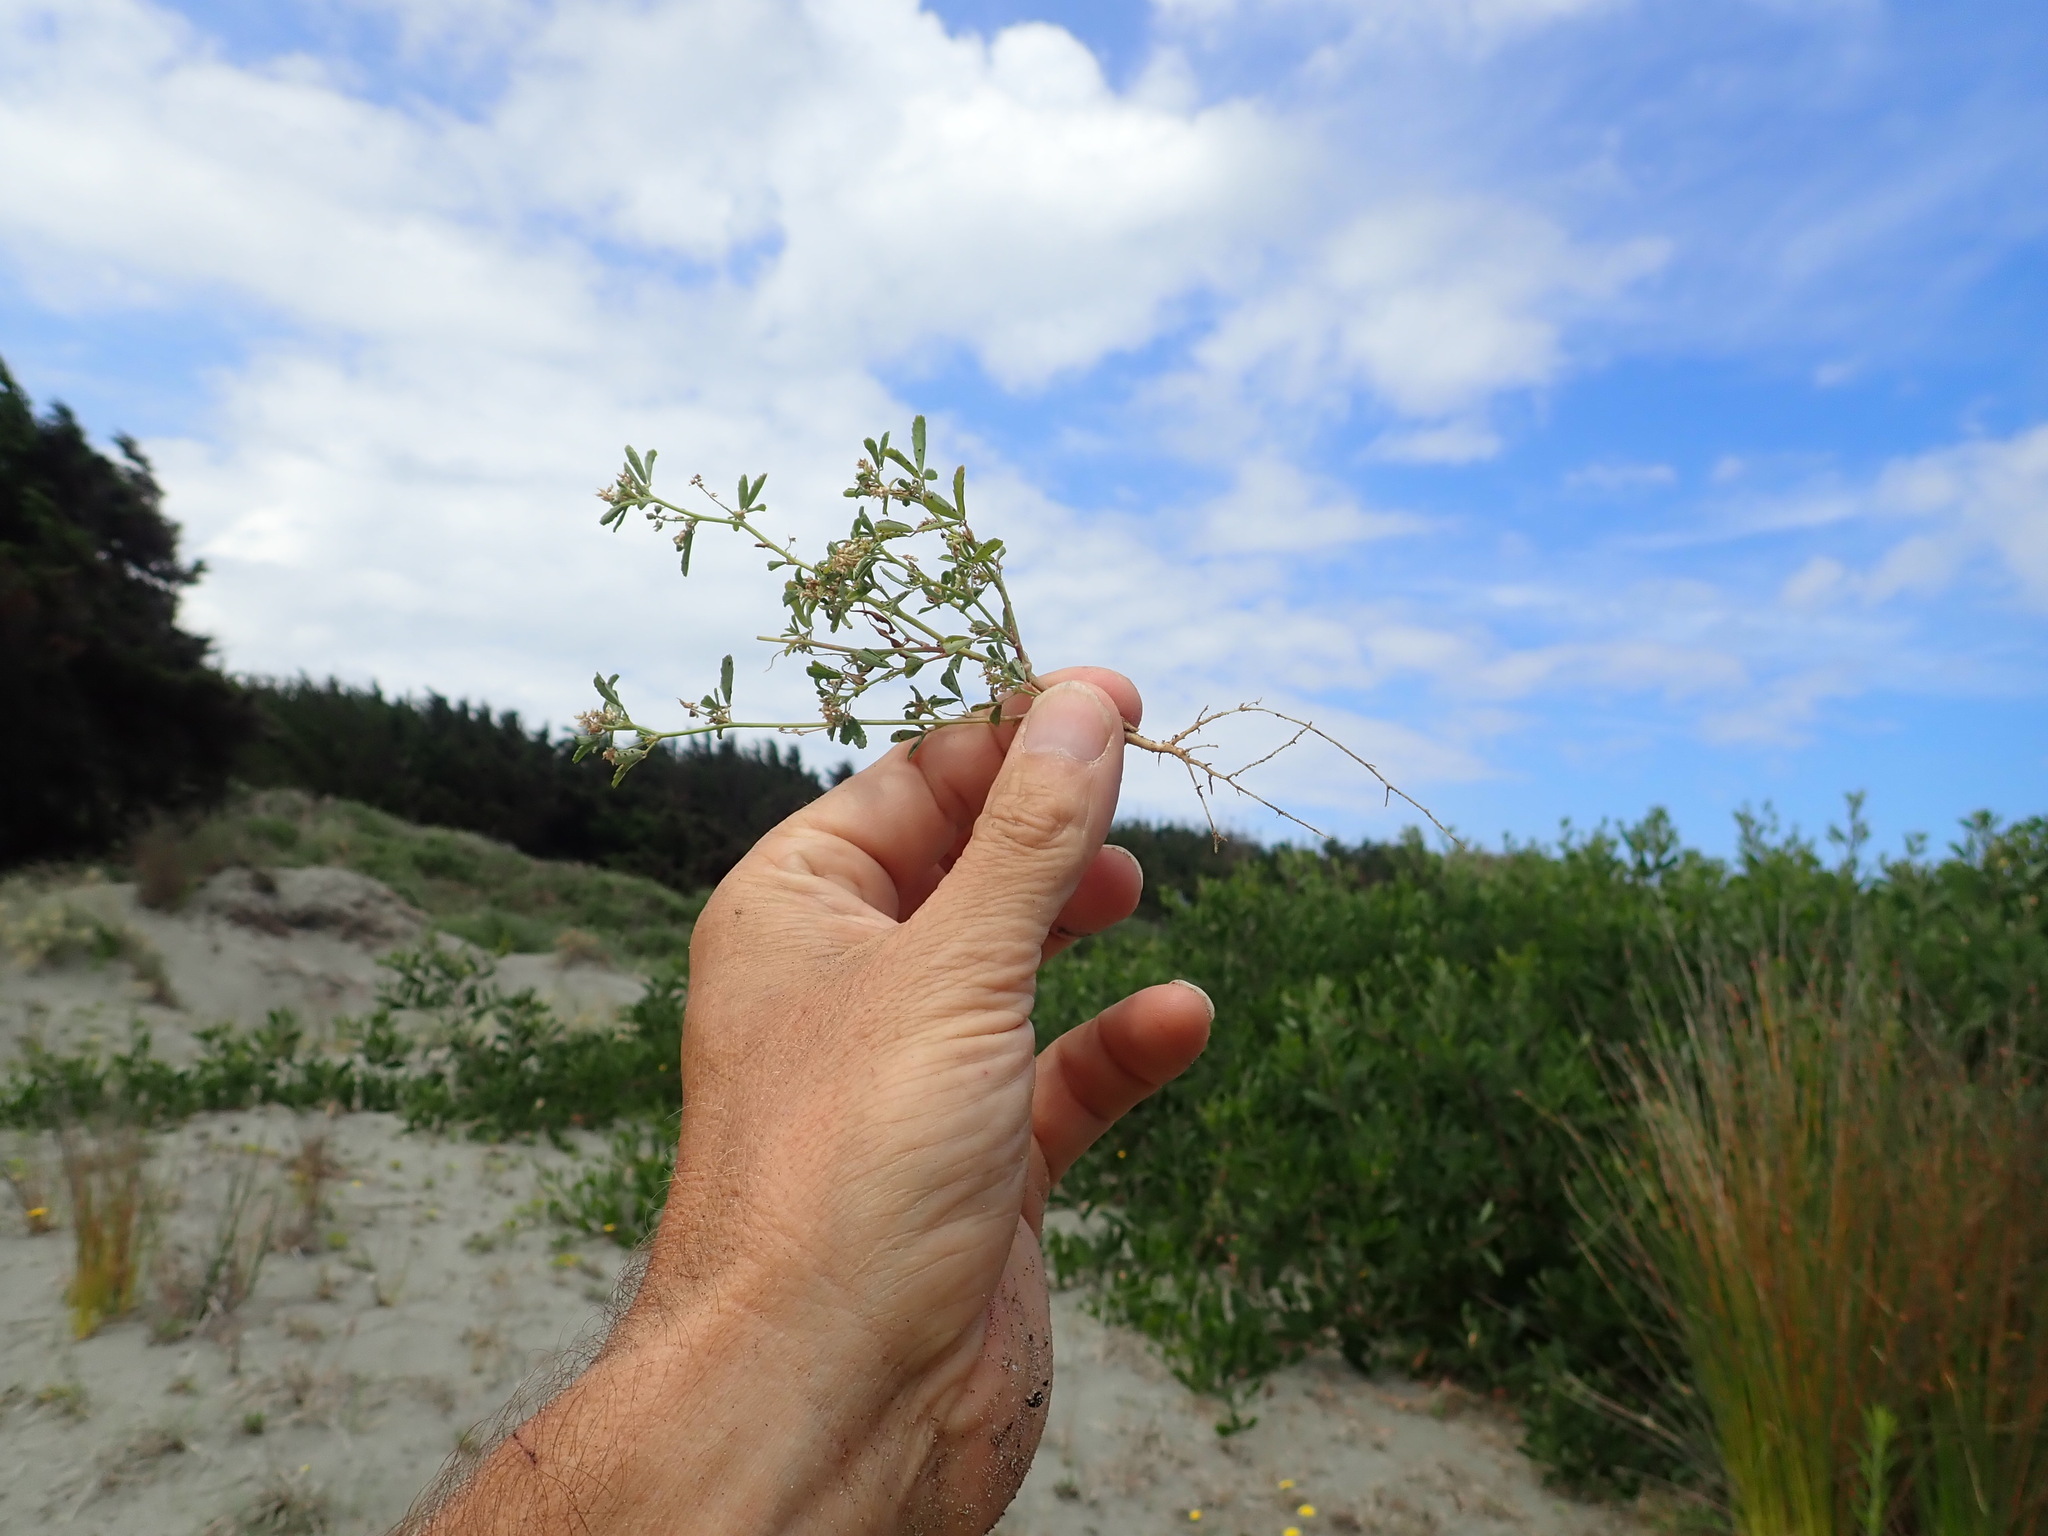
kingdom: Plantae
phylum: Tracheophyta
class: Magnoliopsida
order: Fabales
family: Fabaceae
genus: Melilotus
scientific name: Melilotus indicus
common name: Small melilot
